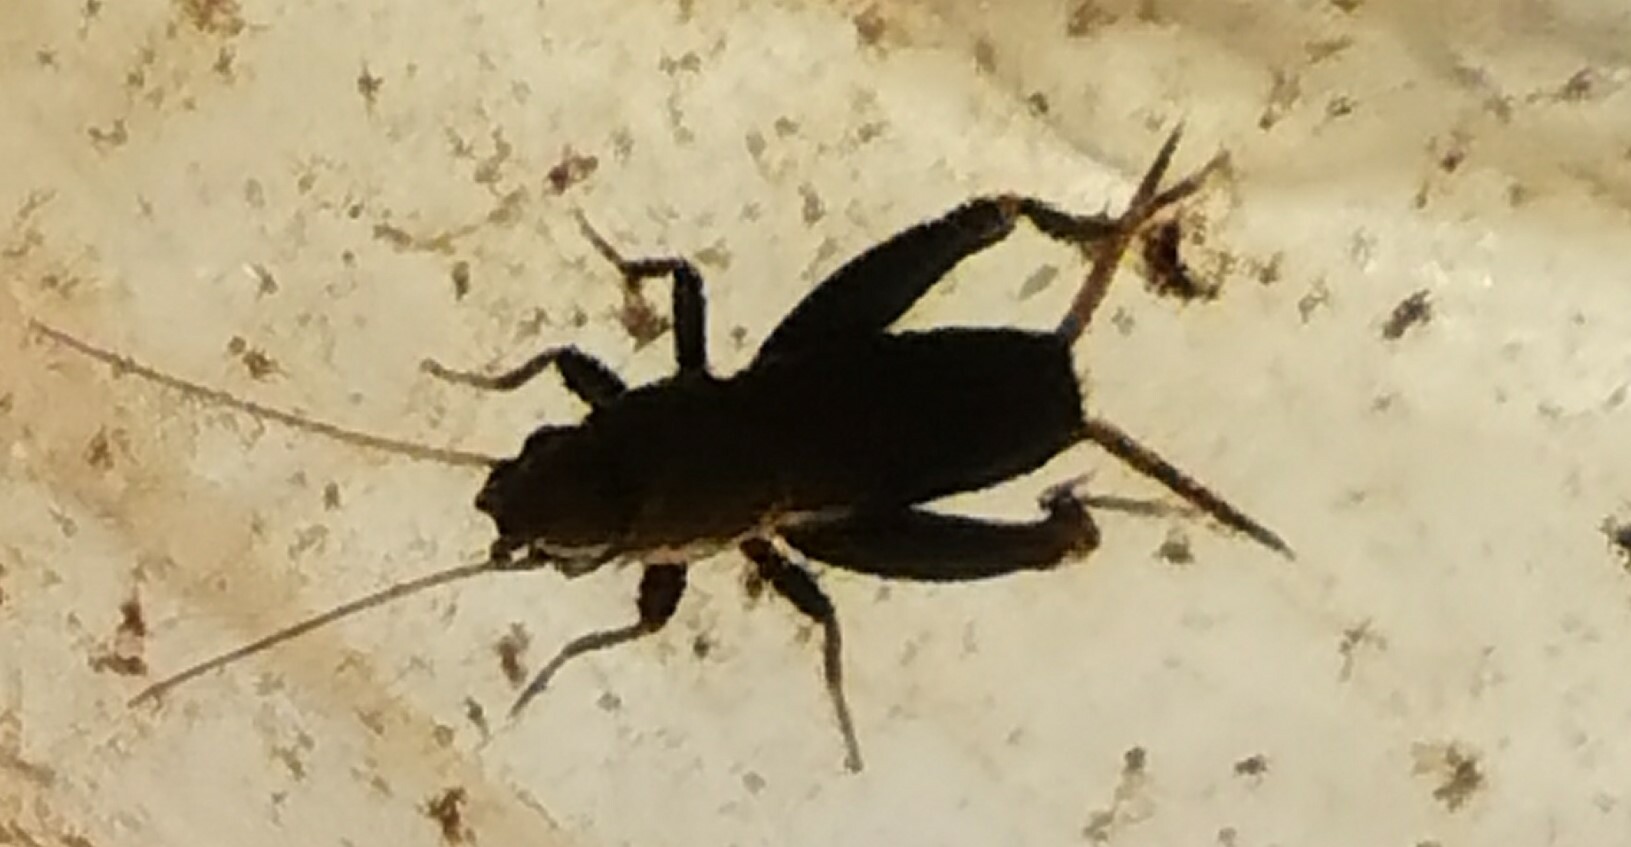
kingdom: Animalia
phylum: Arthropoda
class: Insecta
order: Orthoptera
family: Mogoplistidae
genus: Mogoplistes
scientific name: Mogoplistes brunneus
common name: Brown scale-cricket
